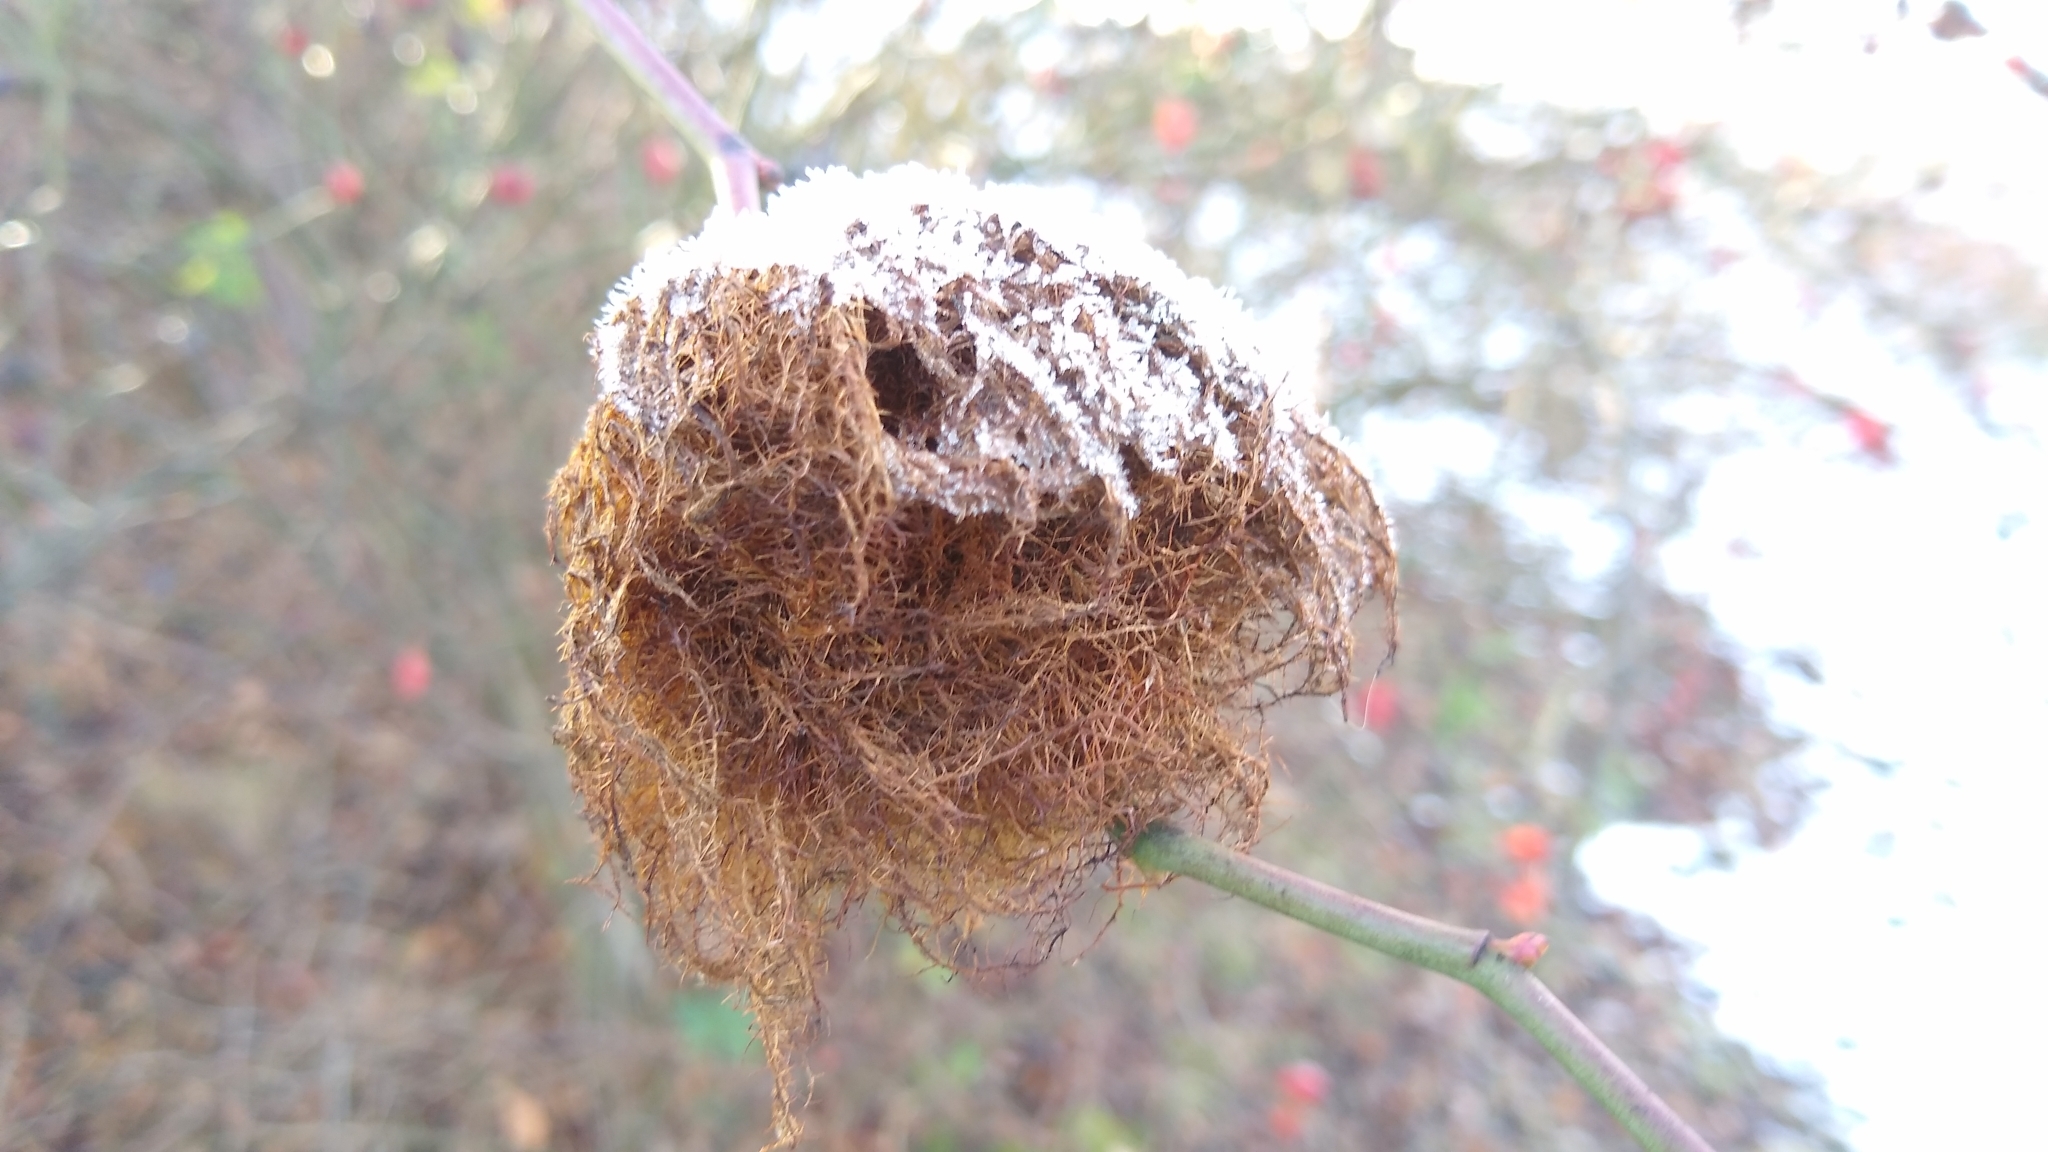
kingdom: Animalia
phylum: Arthropoda
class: Insecta
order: Hymenoptera
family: Cynipidae
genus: Diplolepis
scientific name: Diplolepis rosae
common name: Bedeguar gall
